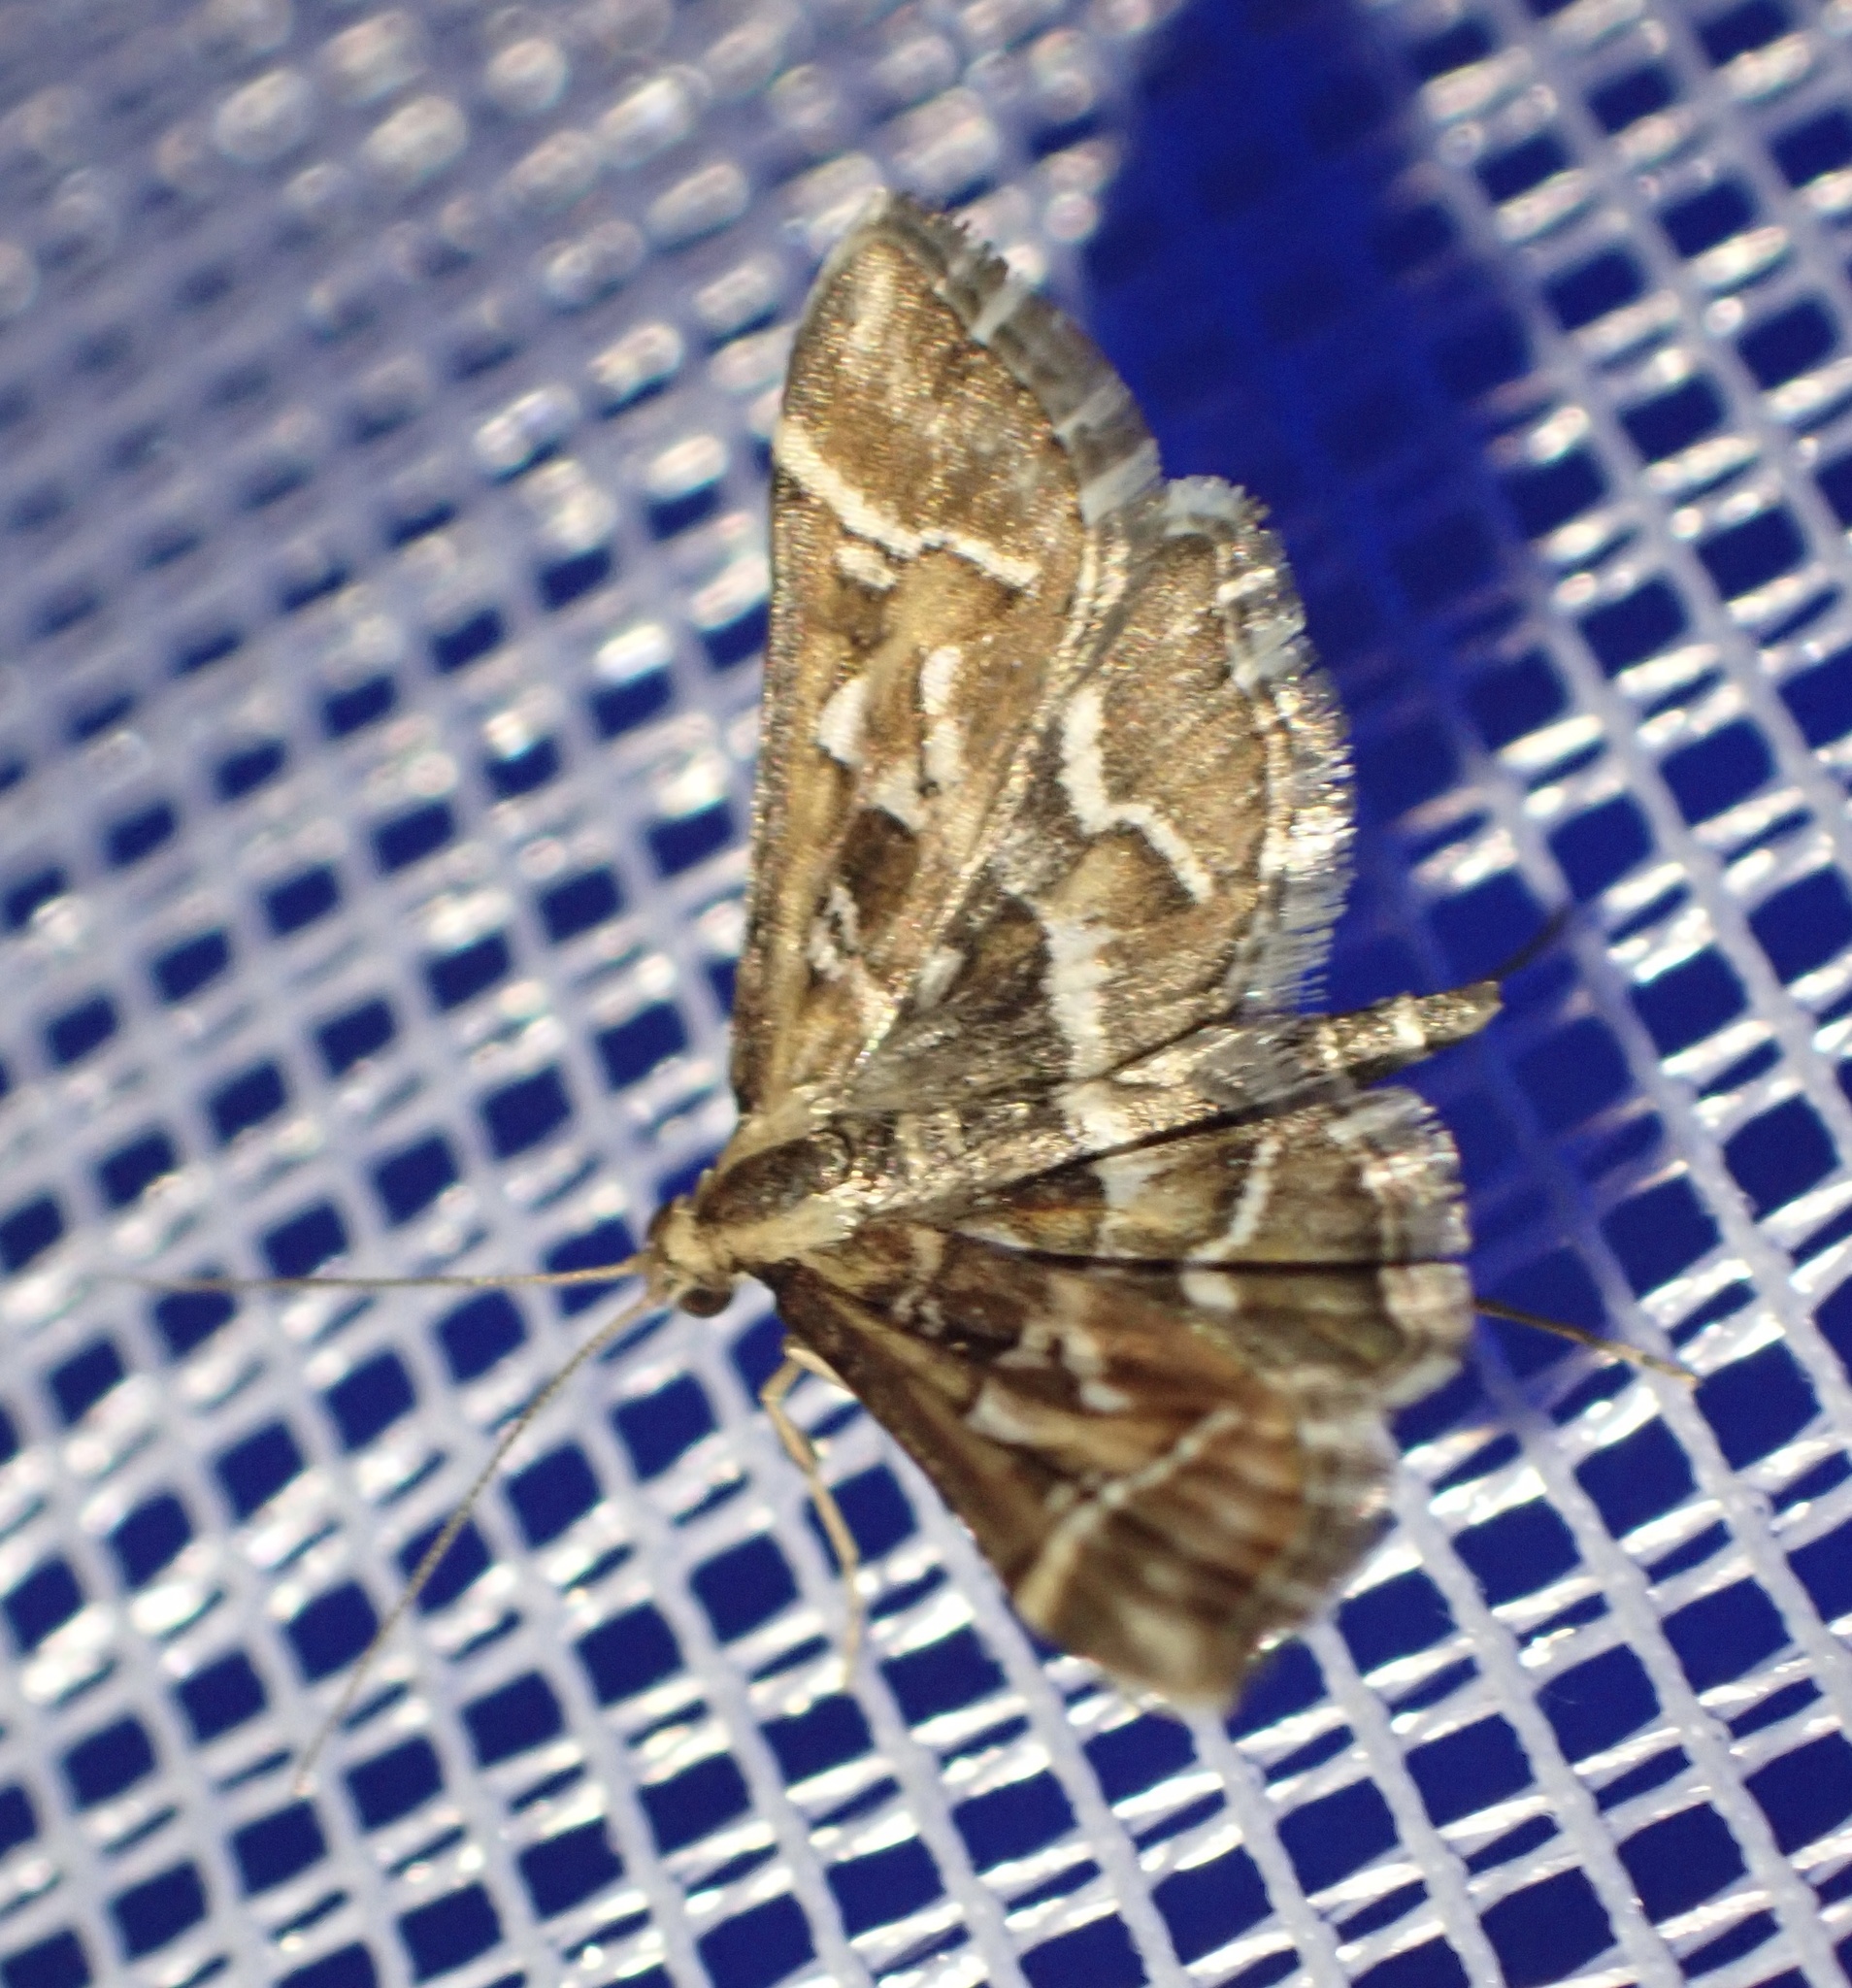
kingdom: Animalia
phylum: Arthropoda
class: Insecta
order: Lepidoptera
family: Crambidae
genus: Diasemia
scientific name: Diasemia reticularis
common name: Lettered china-mark
